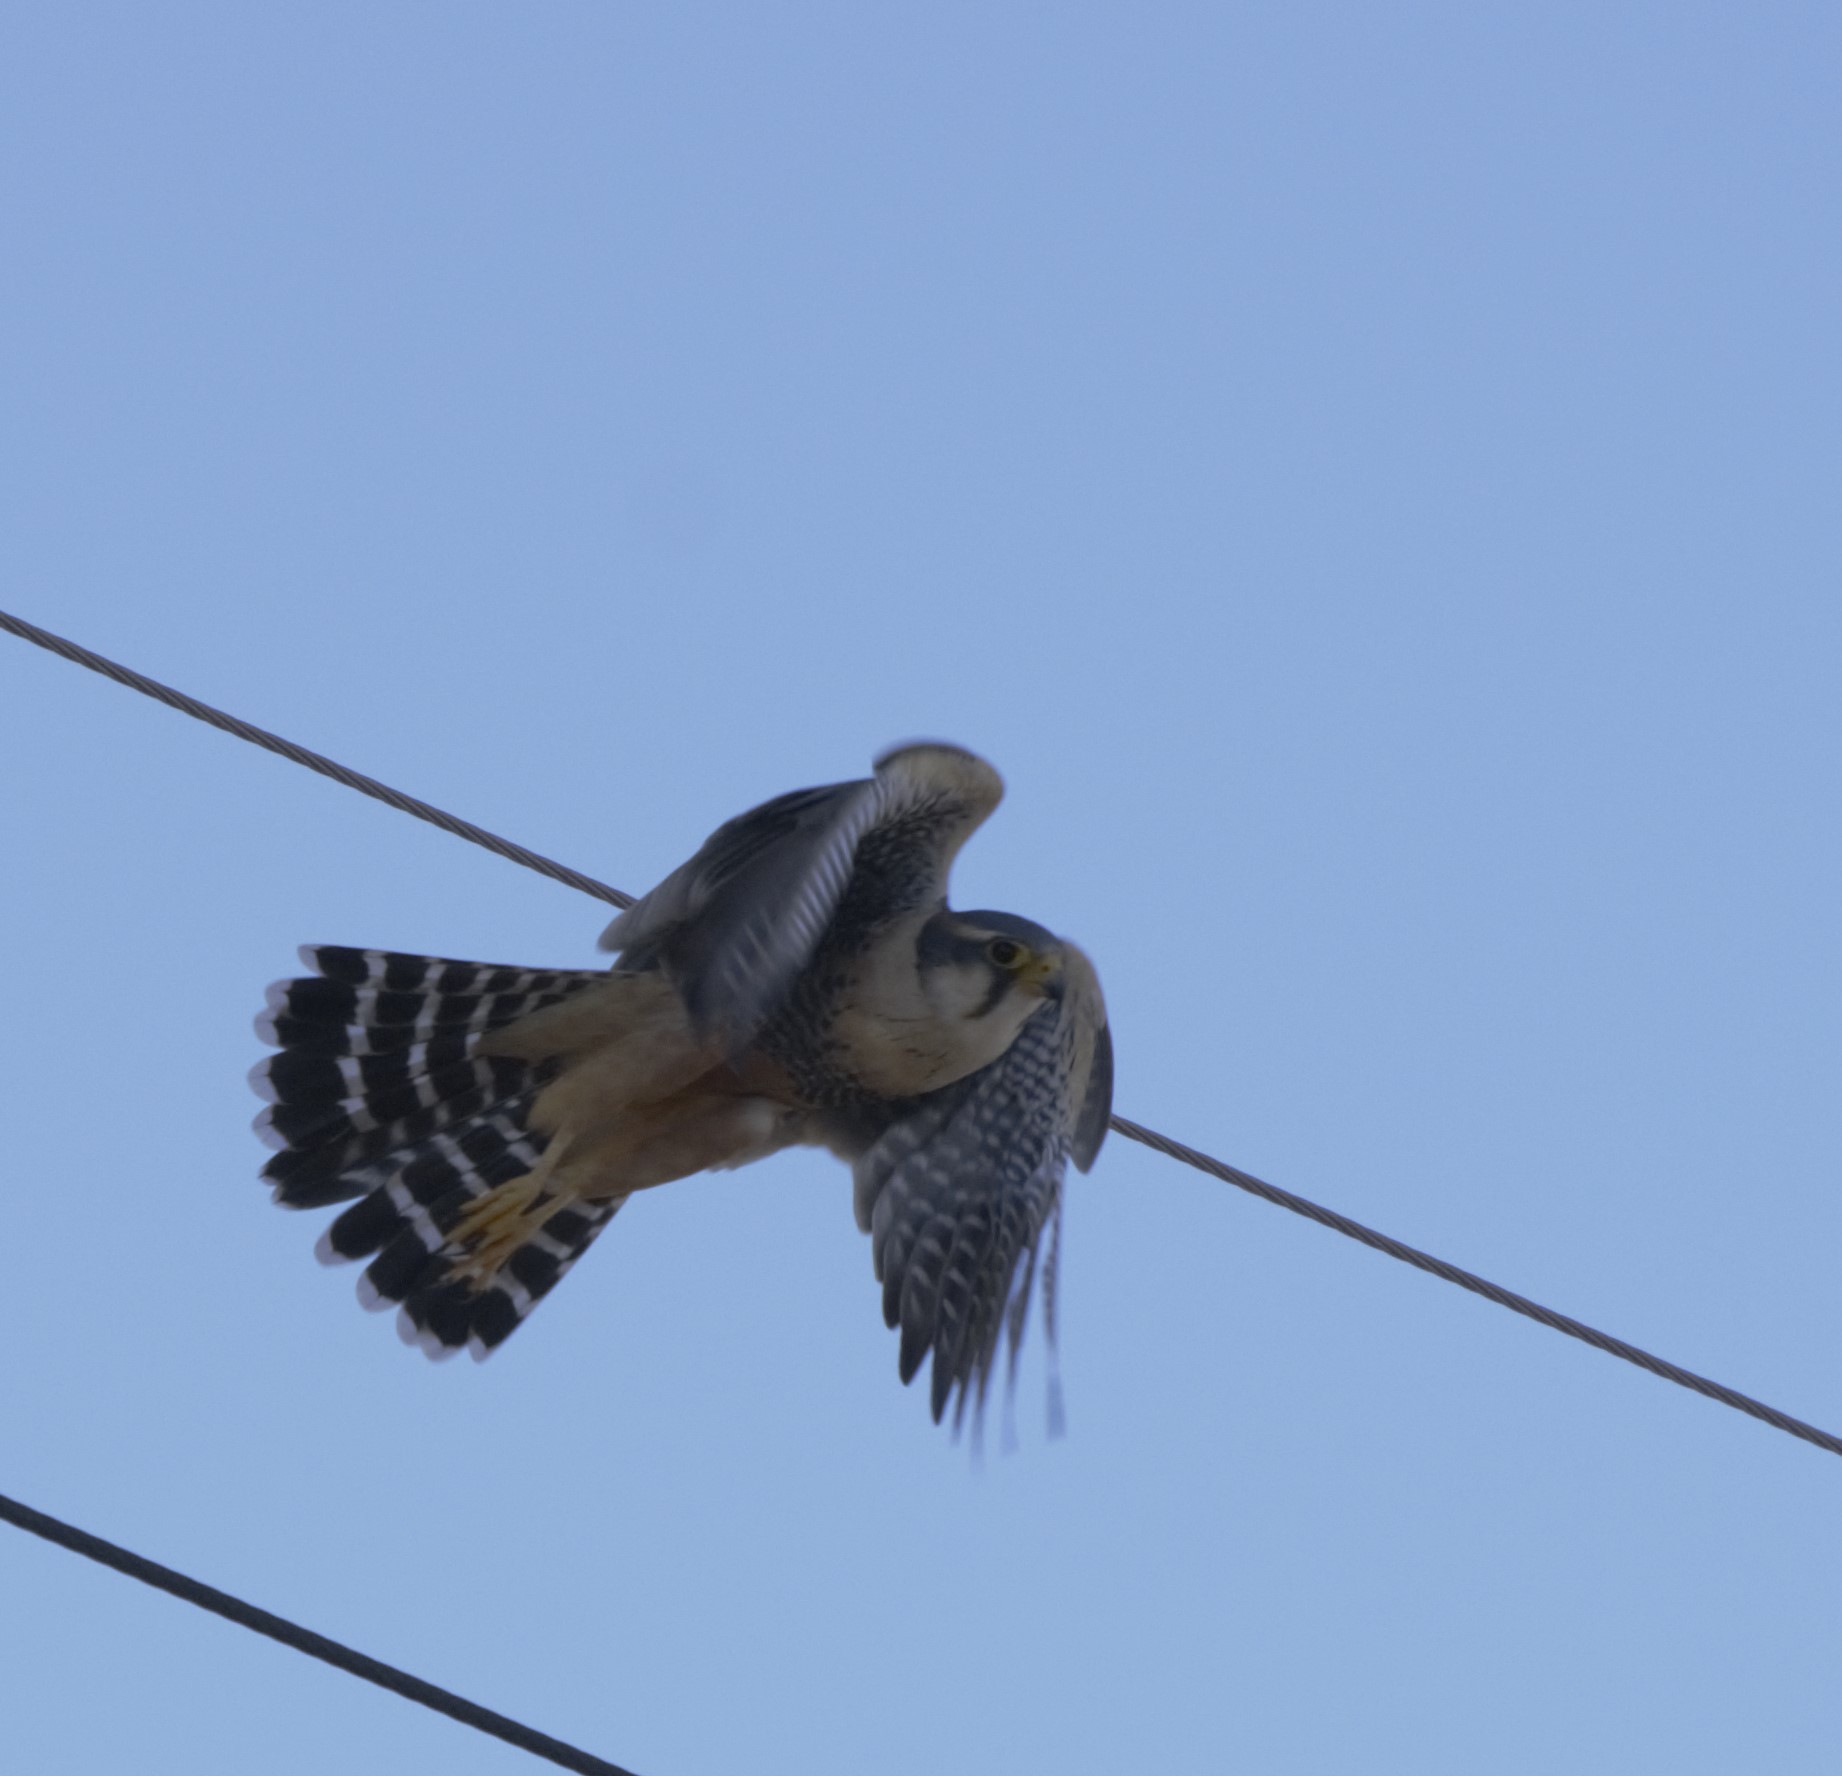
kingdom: Animalia
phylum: Chordata
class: Aves
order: Falconiformes
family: Falconidae
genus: Falco
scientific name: Falco femoralis
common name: Aplomado falcon
